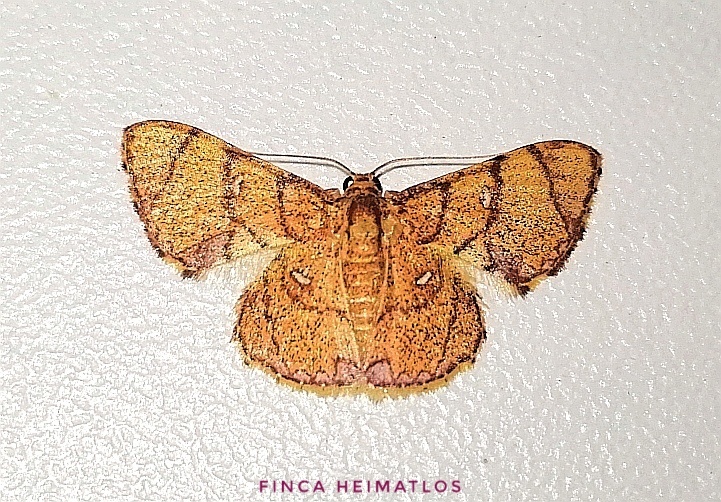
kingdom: Animalia
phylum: Arthropoda
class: Insecta
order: Lepidoptera
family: Geometridae
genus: Hemipterodes
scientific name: Hemipterodes divaricata
